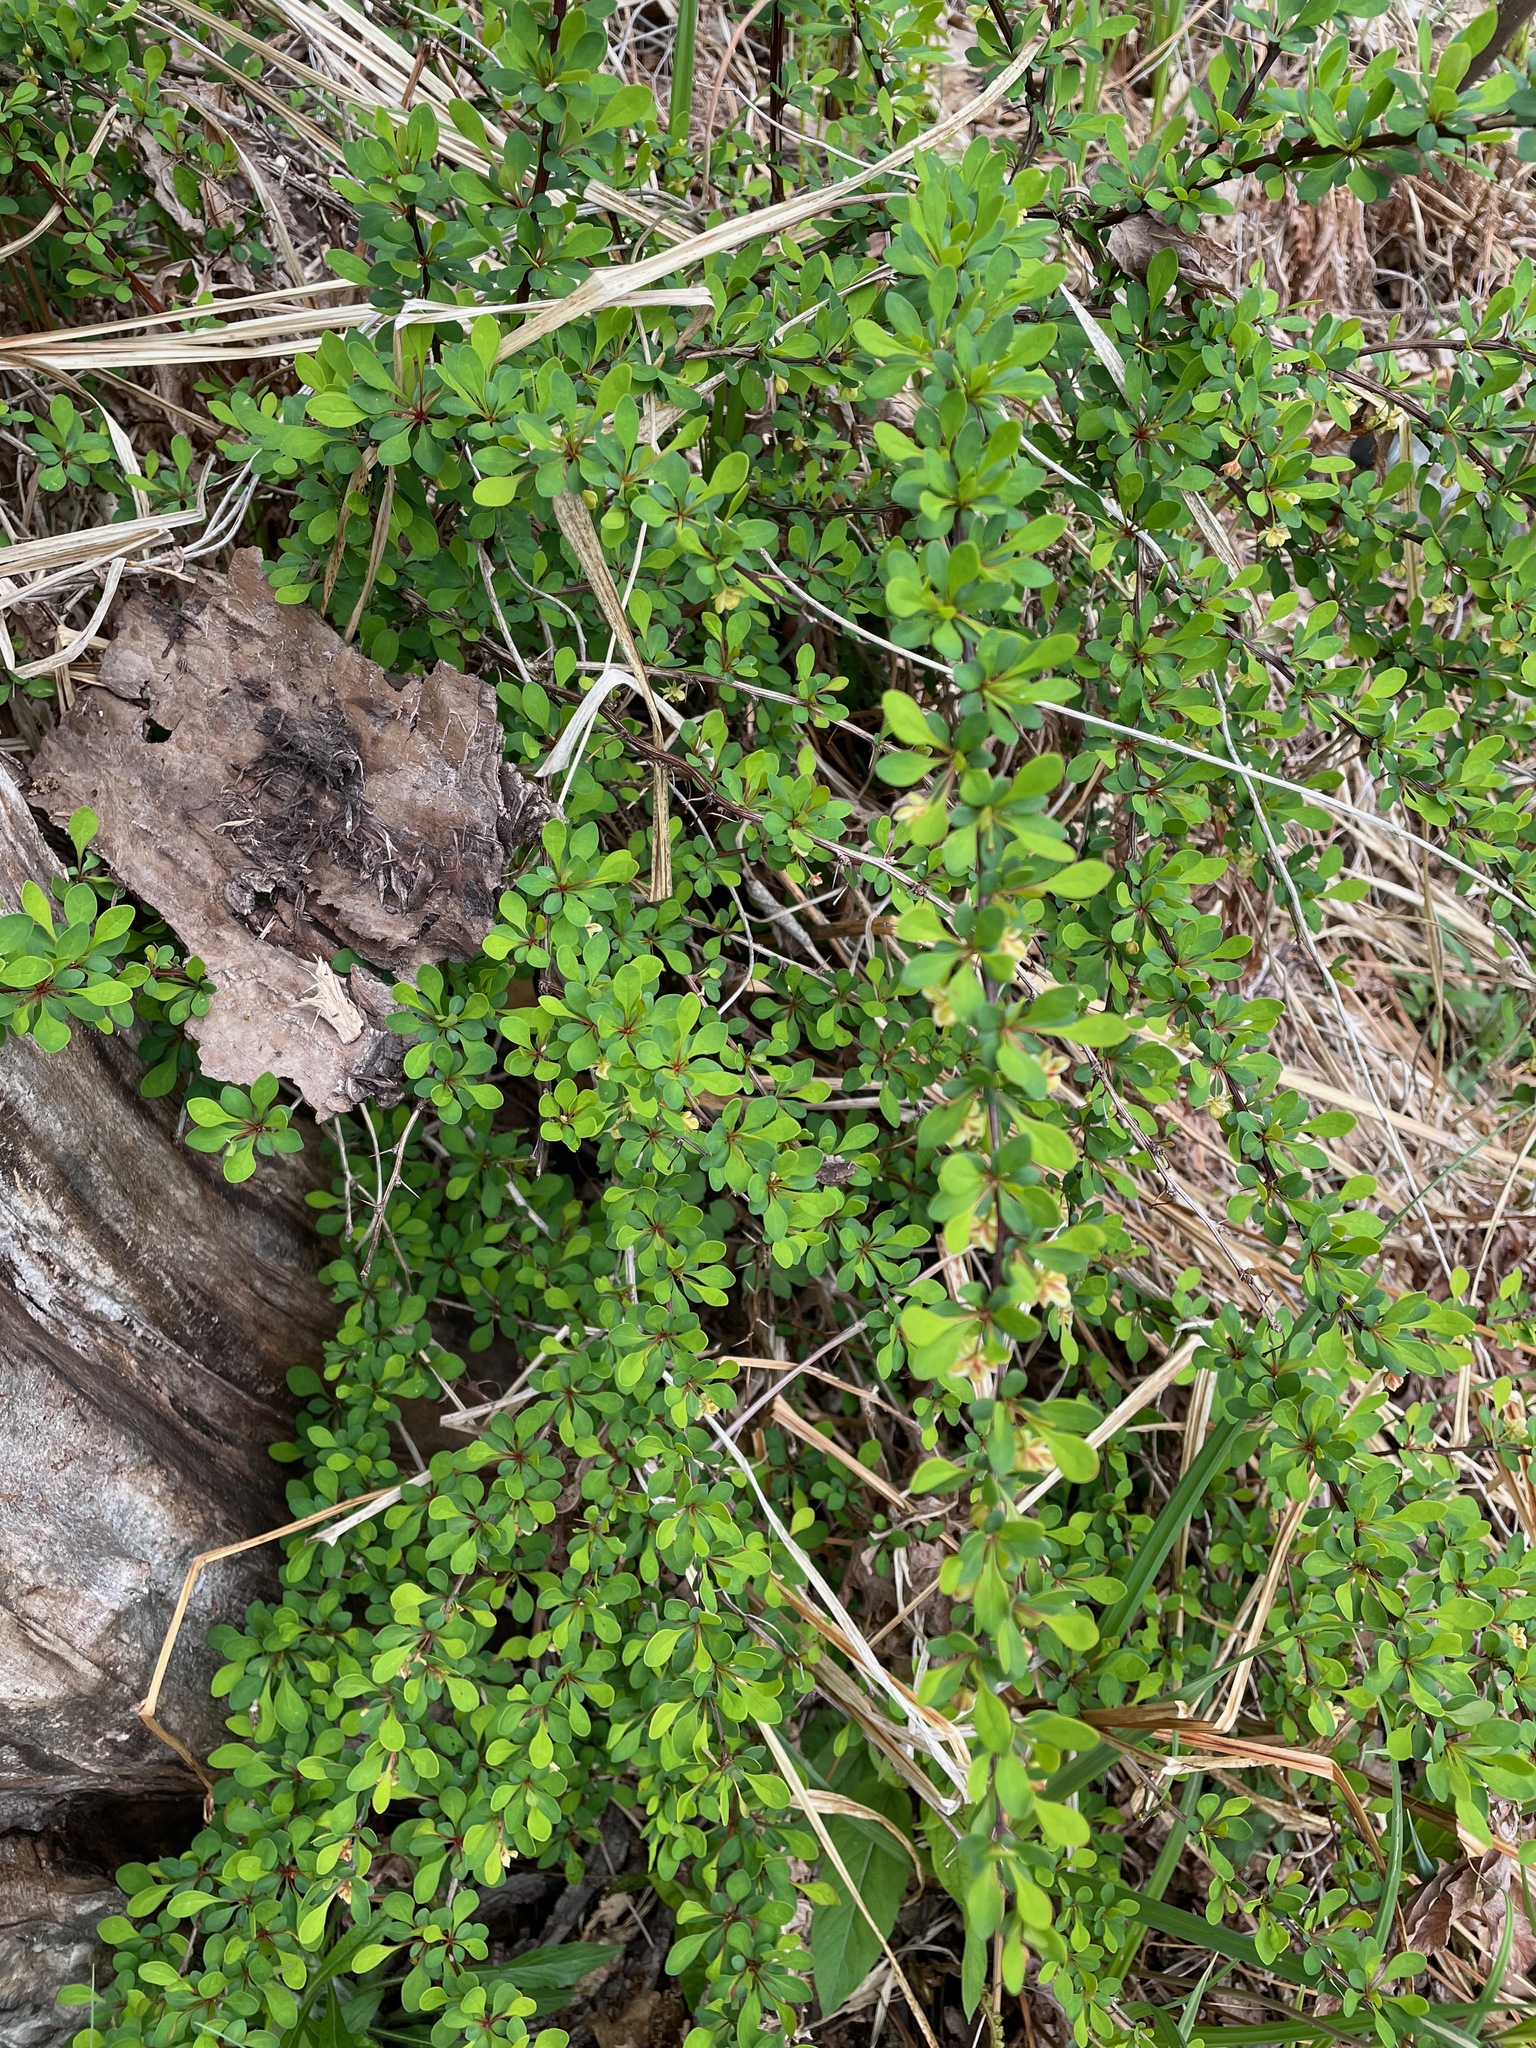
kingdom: Plantae
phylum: Tracheophyta
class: Magnoliopsida
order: Ranunculales
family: Berberidaceae
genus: Berberis
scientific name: Berberis thunbergii
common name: Japanese barberry
